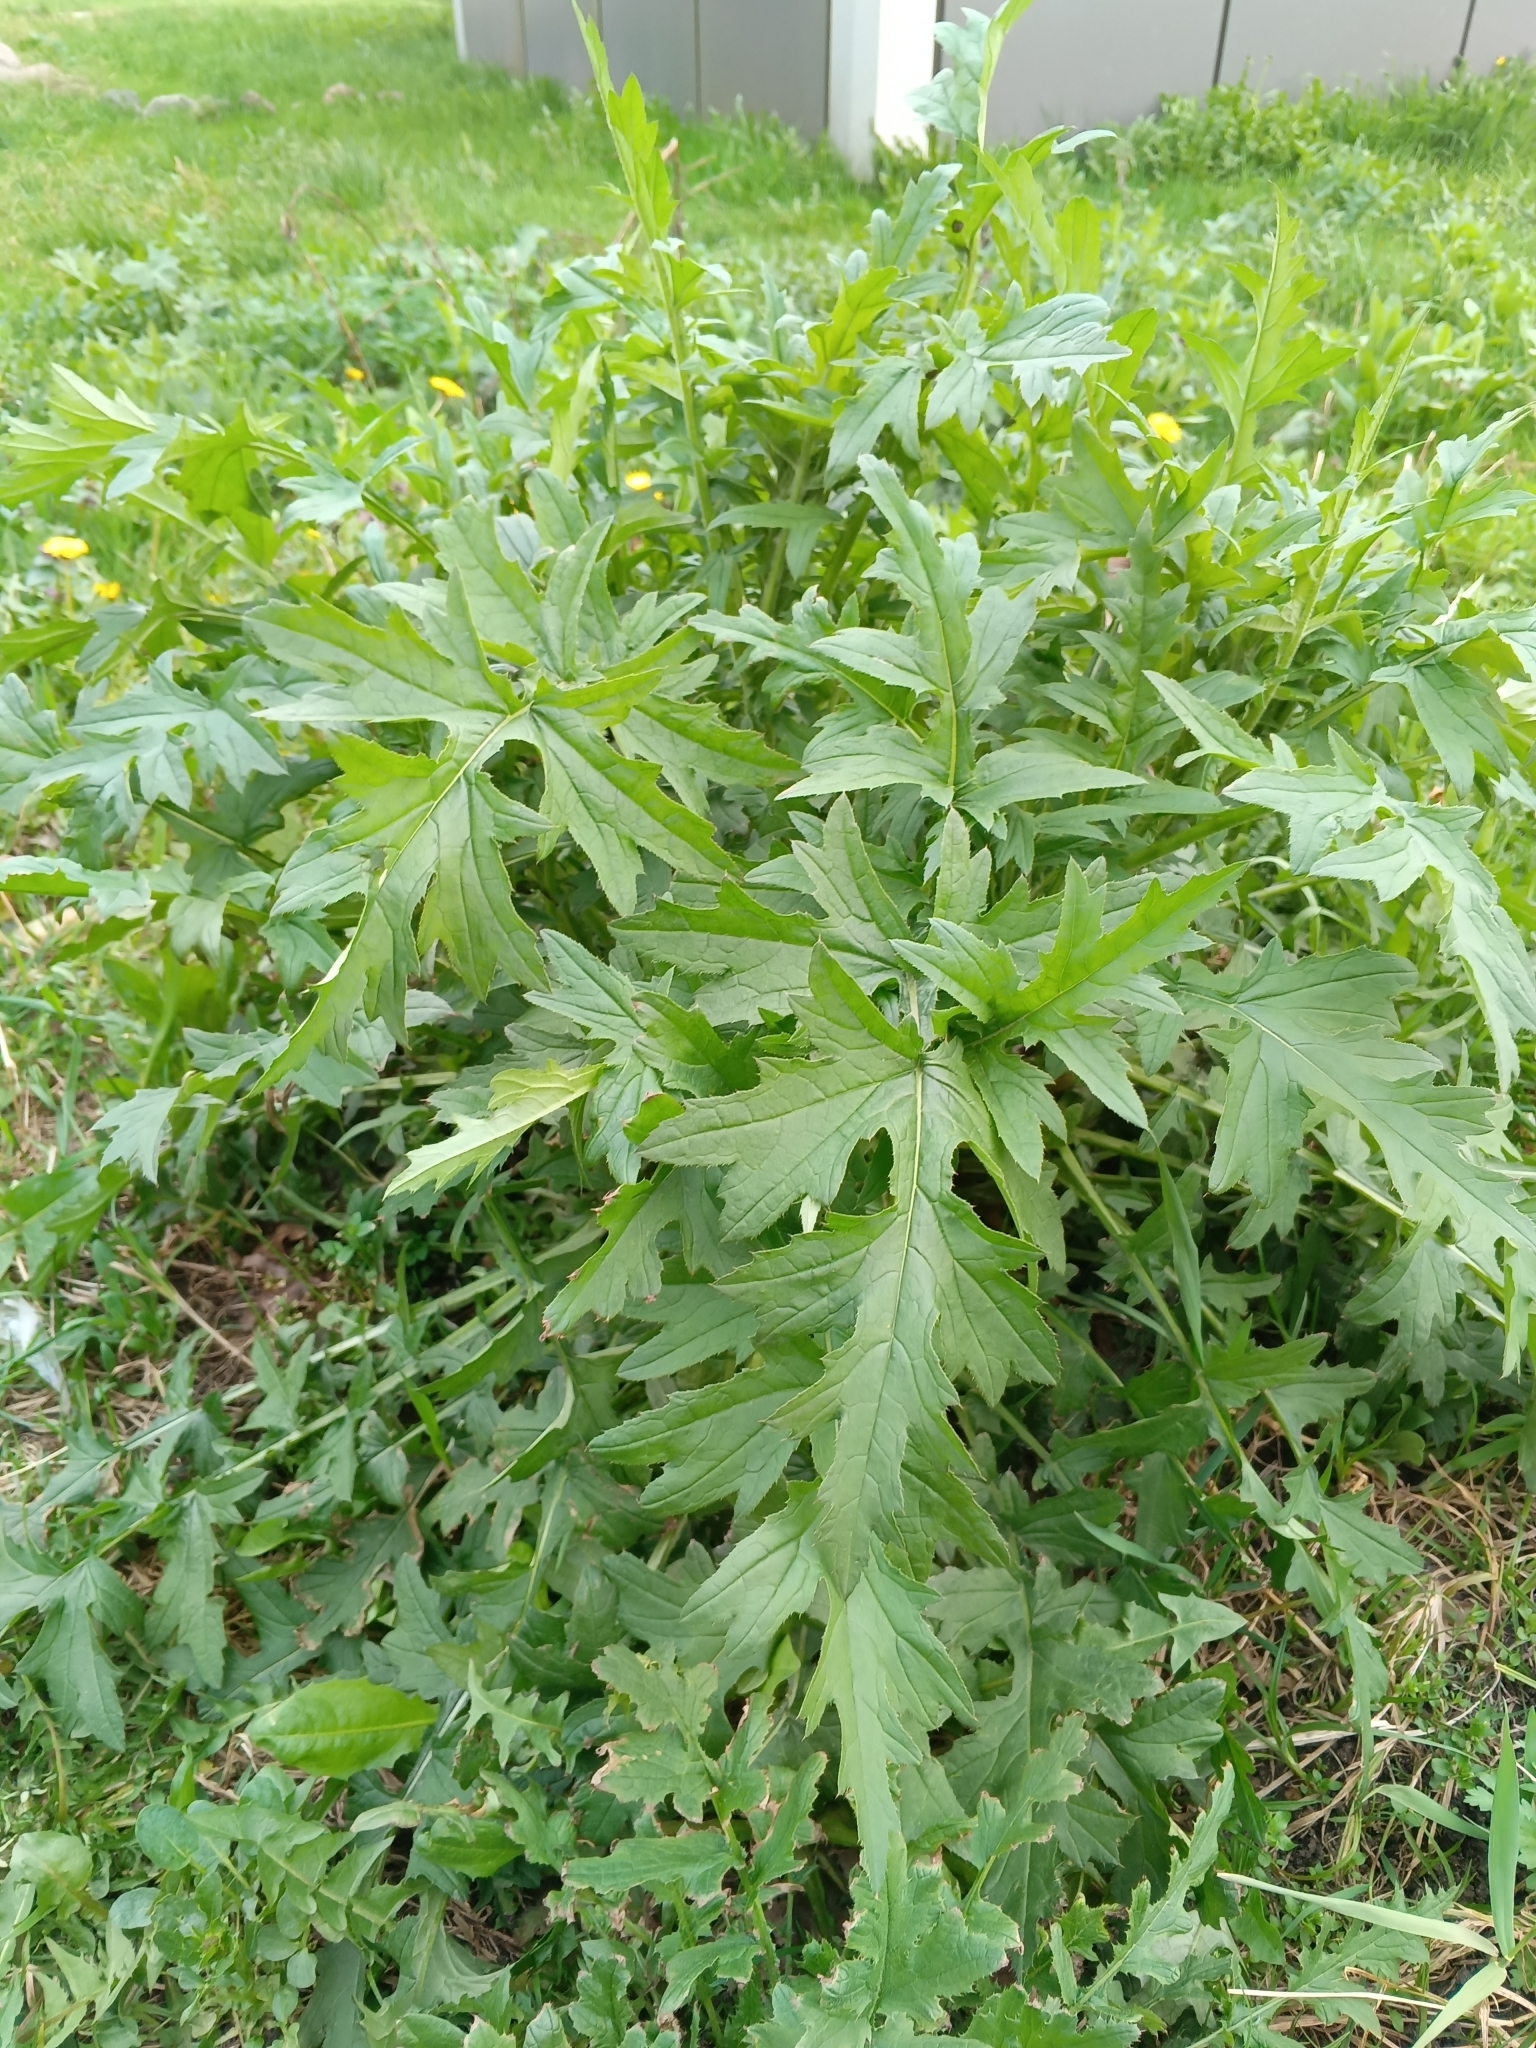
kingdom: Plantae
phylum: Tracheophyta
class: Magnoliopsida
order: Asterales
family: Asteraceae
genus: Carduus
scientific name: Carduus crispus
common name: Welted thistle
